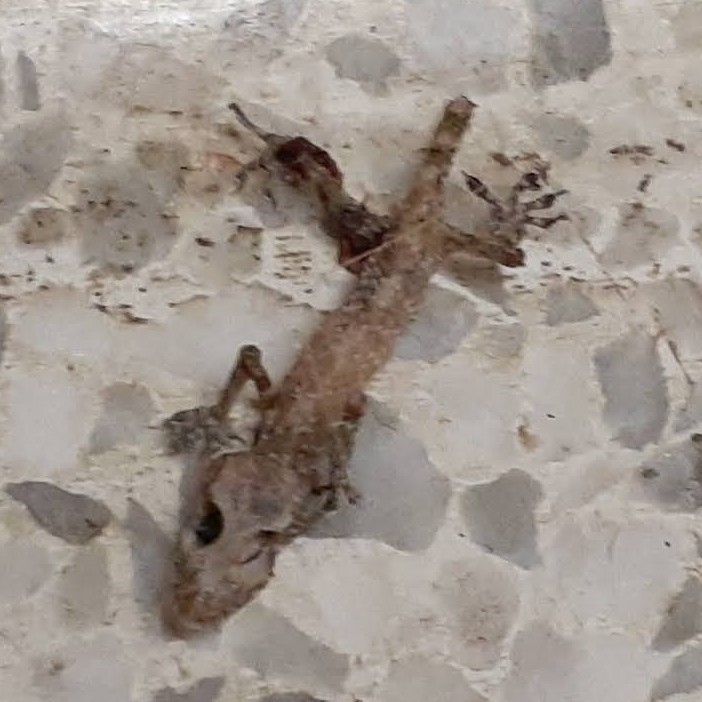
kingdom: Animalia
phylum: Chordata
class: Squamata
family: Gekkonidae
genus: Hemidactylus
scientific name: Hemidactylus turcicus
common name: Turkish gecko
